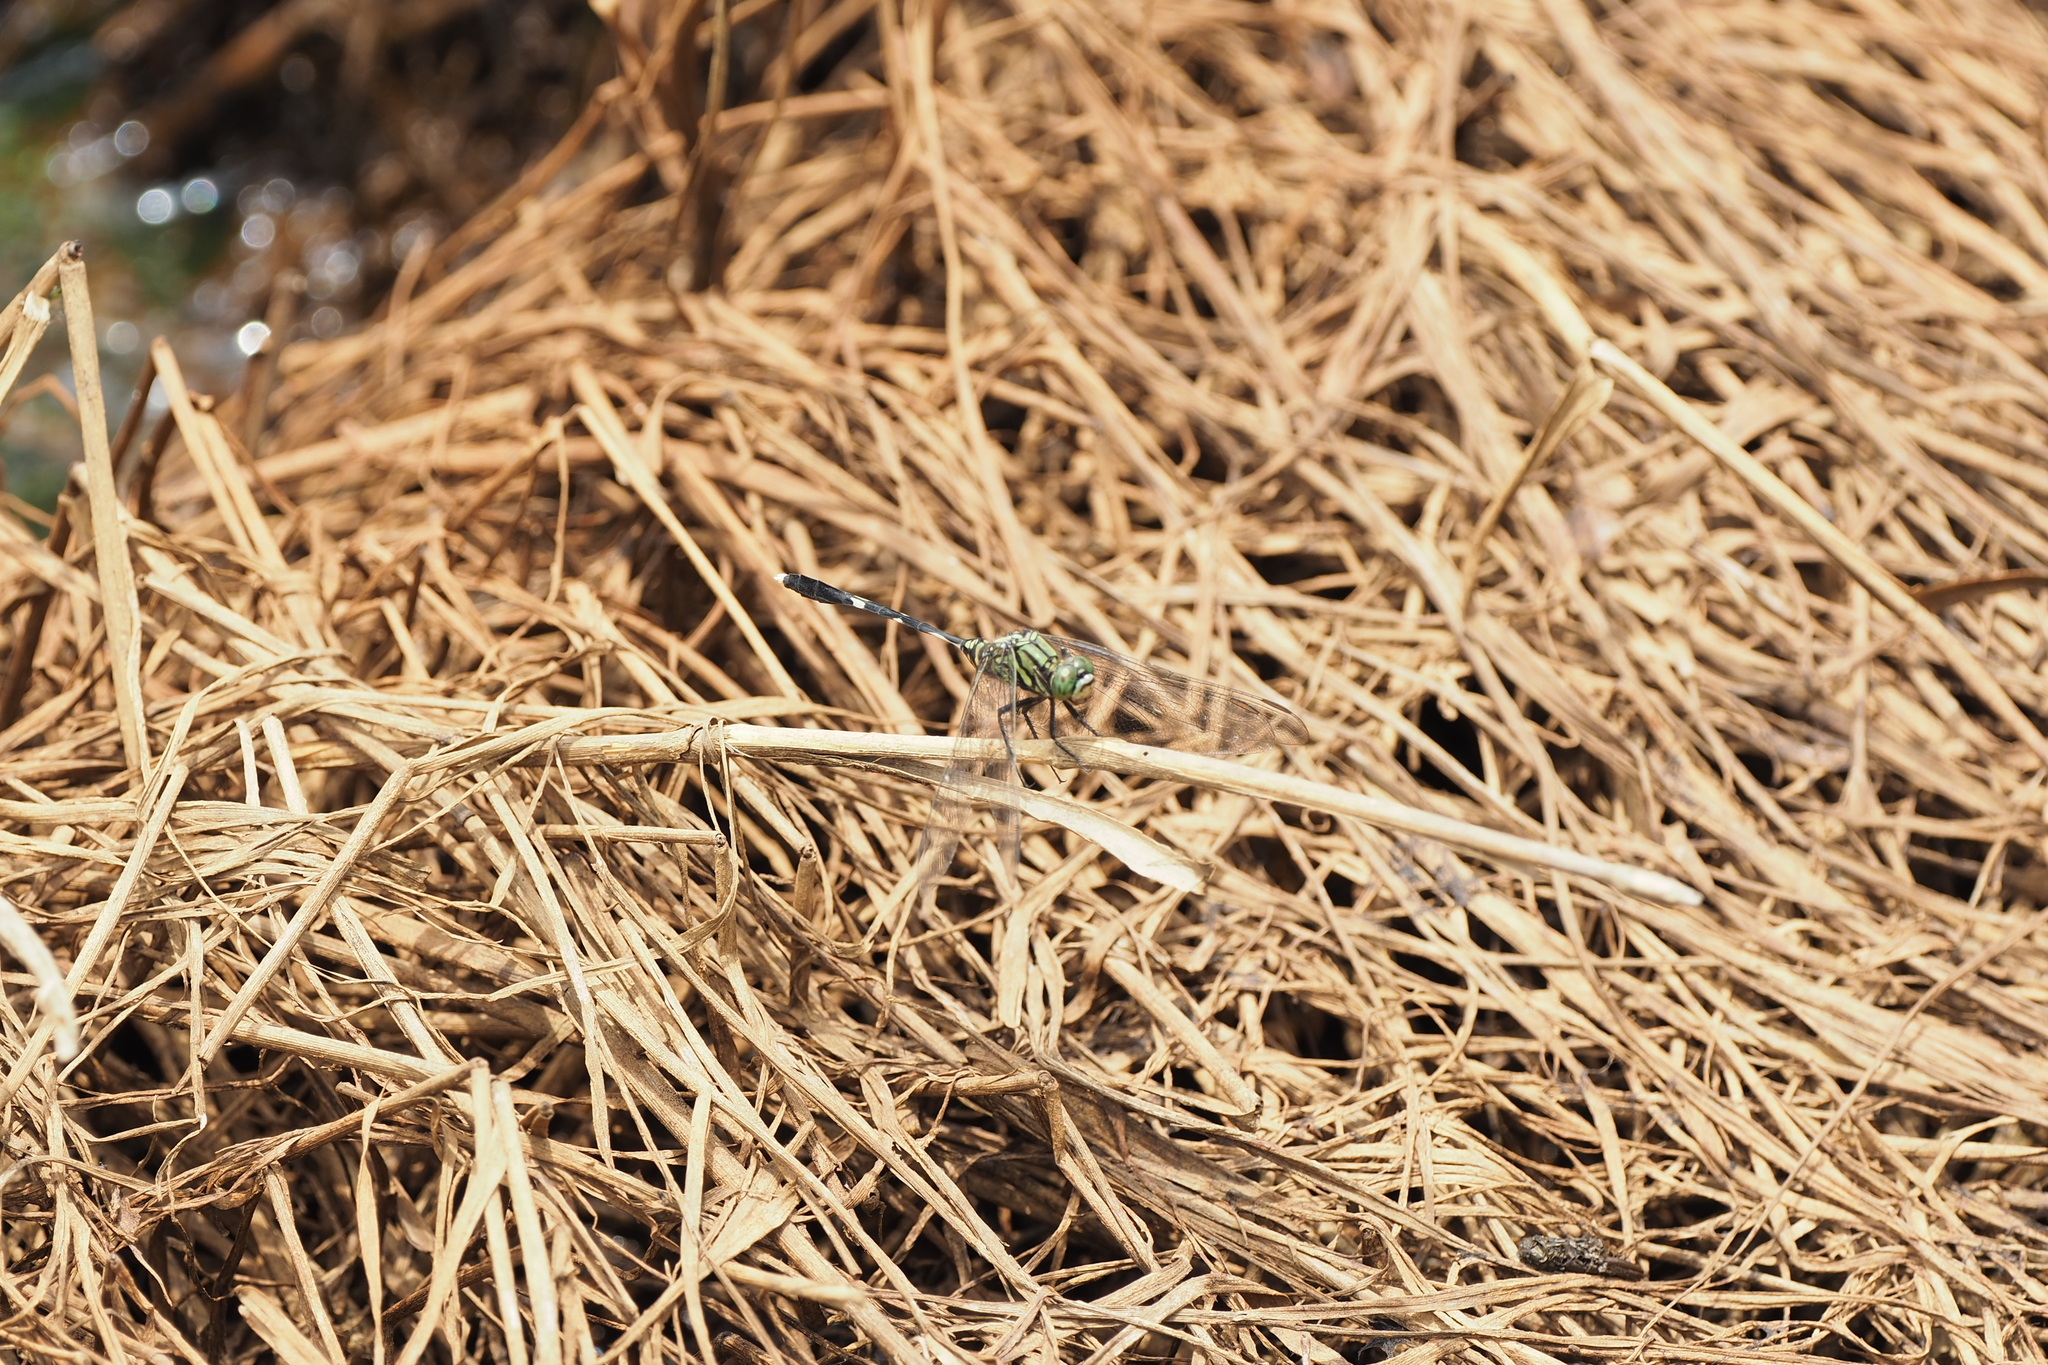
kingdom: Animalia
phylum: Arthropoda
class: Insecta
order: Odonata
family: Libellulidae
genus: Orthetrum
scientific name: Orthetrum sabina
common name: Slender skimmer
